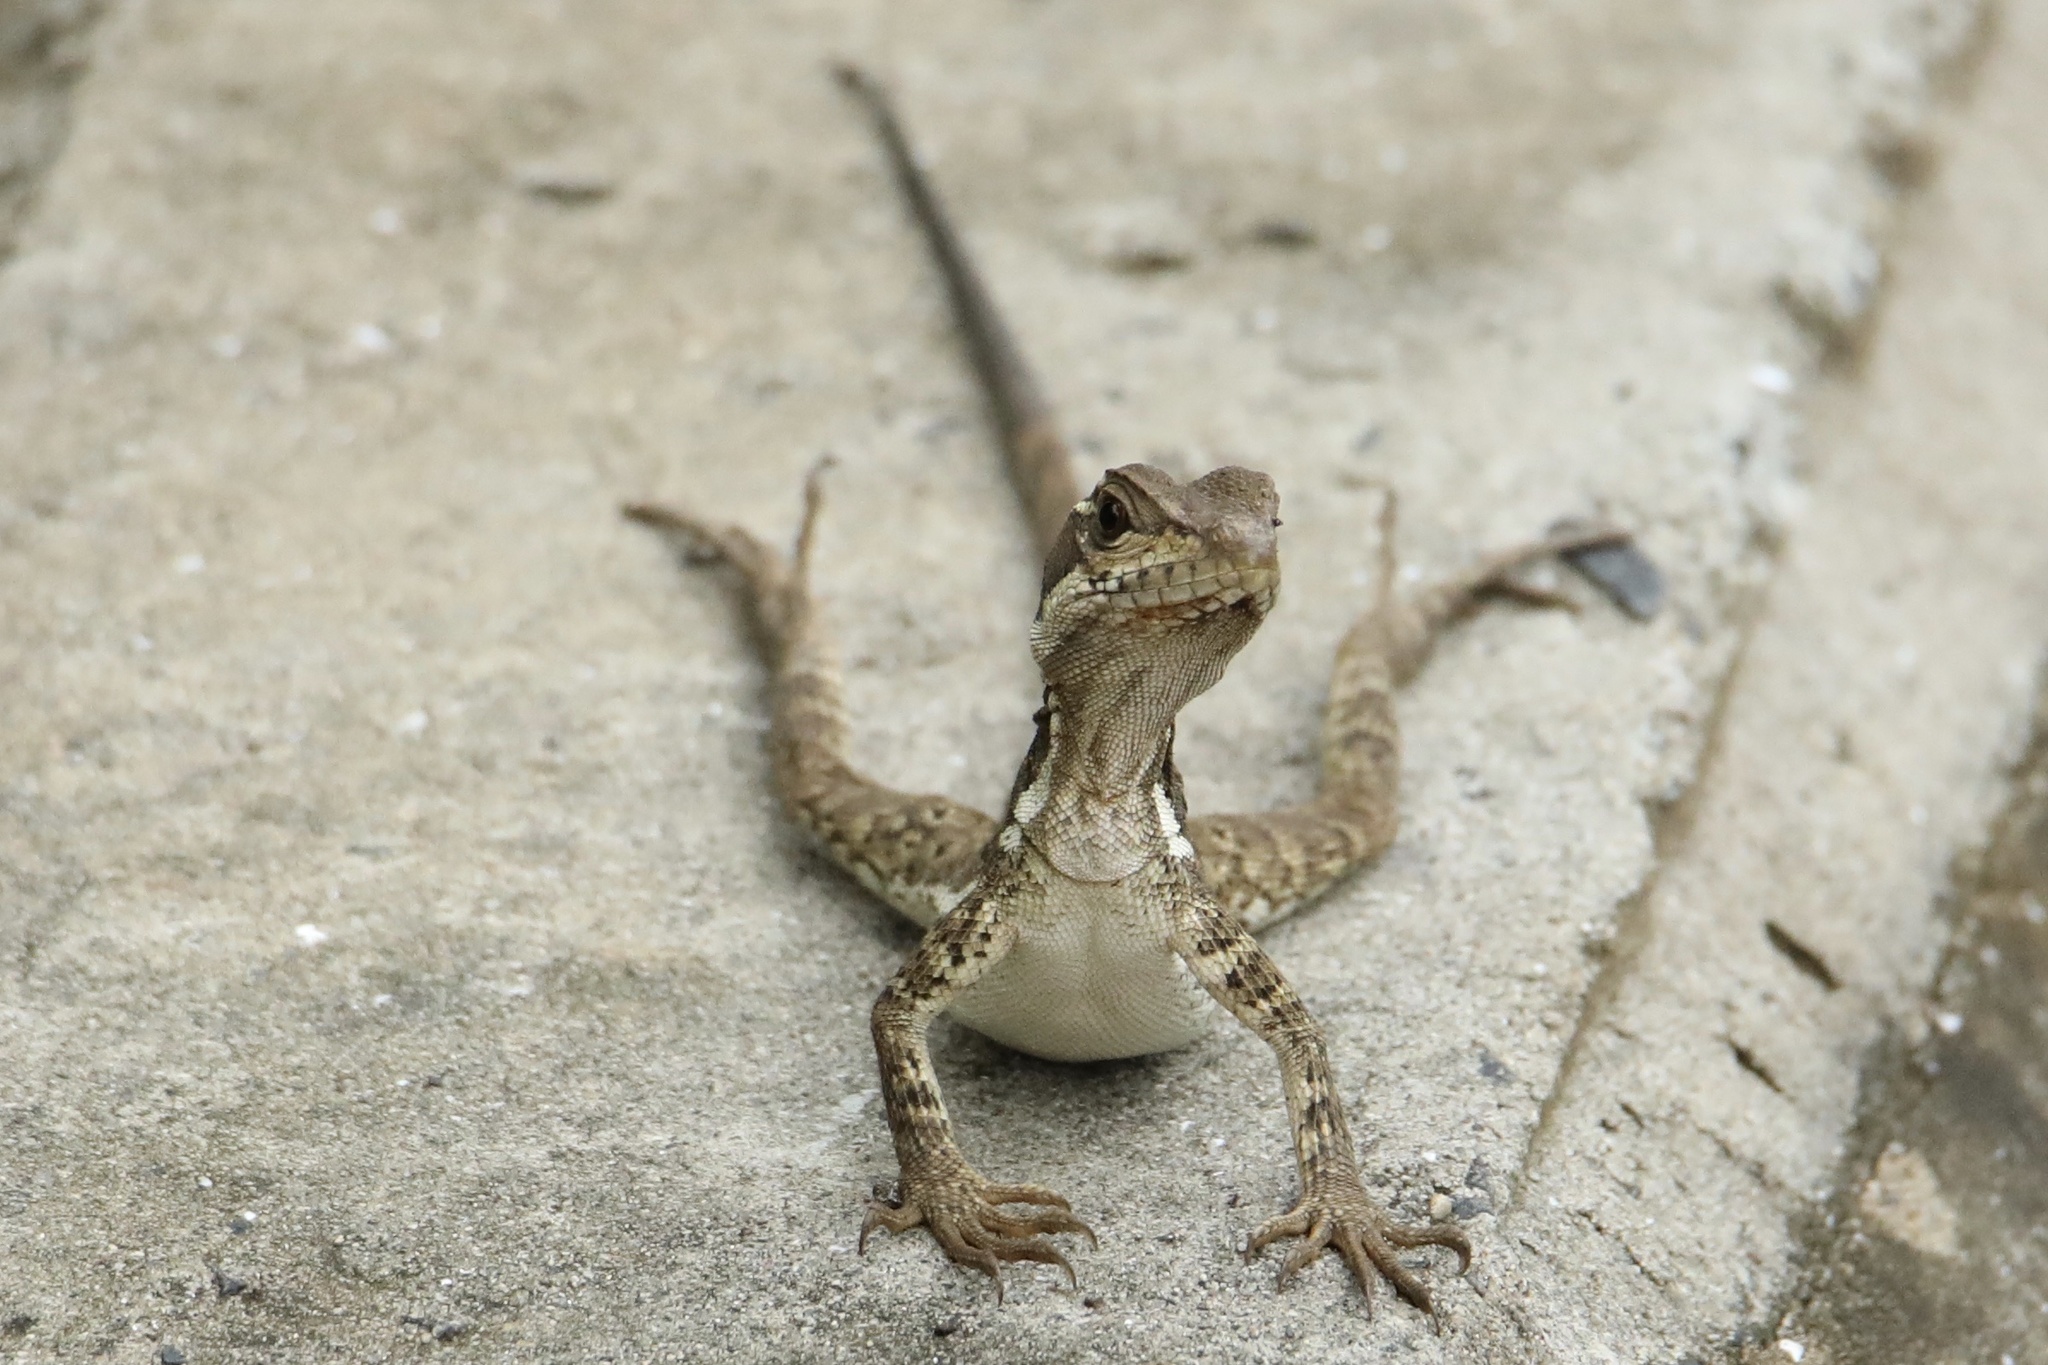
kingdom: Animalia
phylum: Chordata
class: Squamata
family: Corytophanidae
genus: Basiliscus
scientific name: Basiliscus basiliscus
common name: Common basilisk
